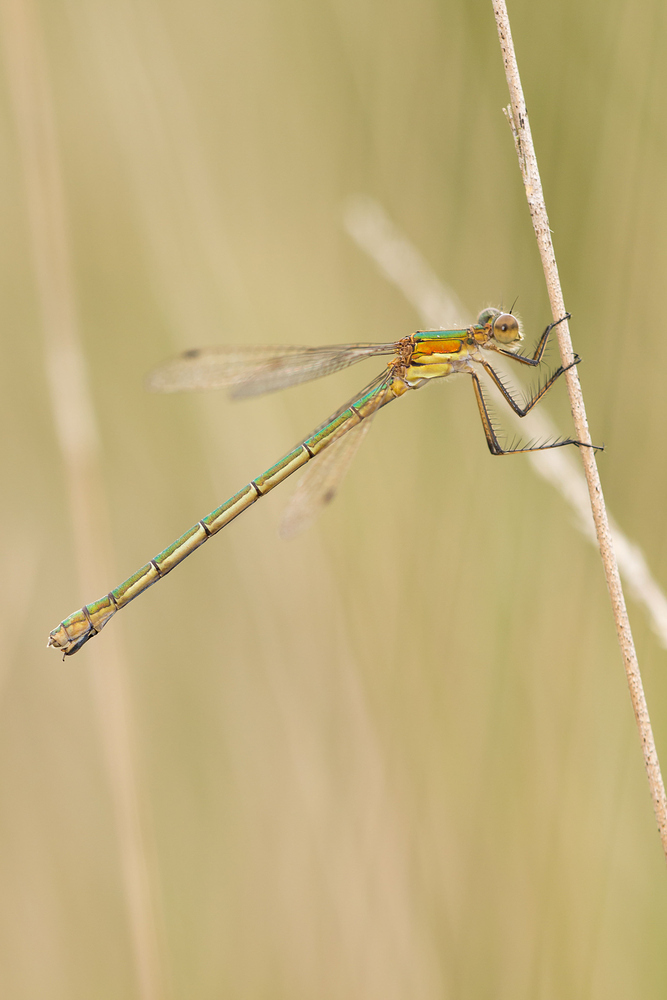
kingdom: Animalia
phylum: Arthropoda
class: Insecta
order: Odonata
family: Lestidae
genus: Lestes
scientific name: Lestes sponsa
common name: Common spreadwing
